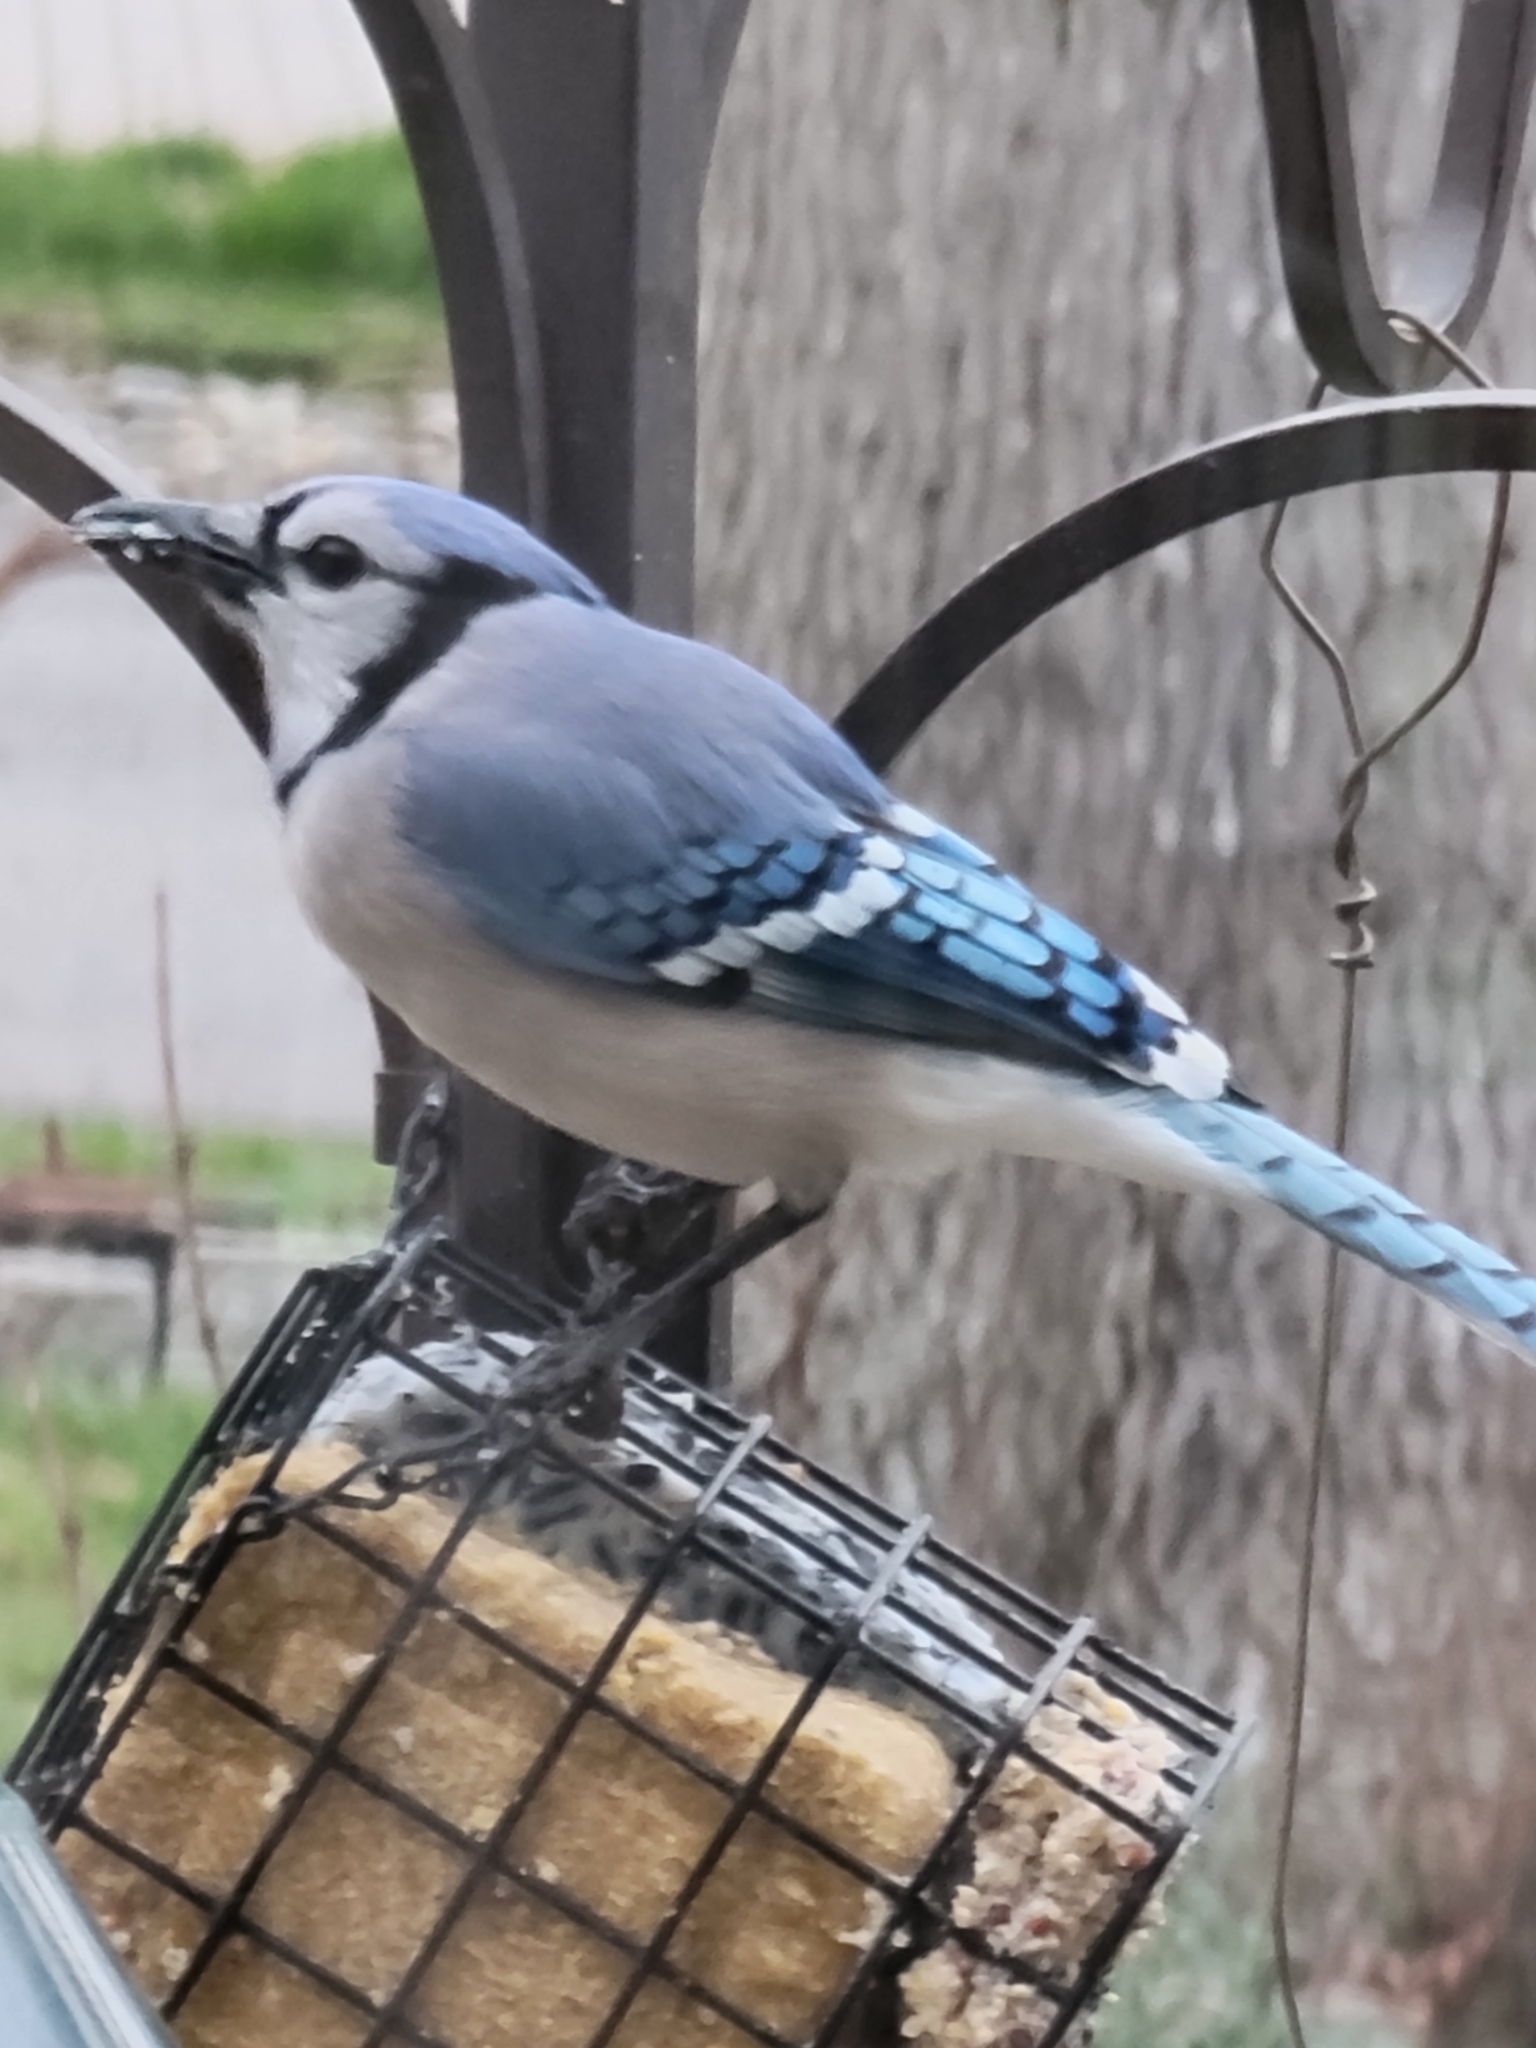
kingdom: Animalia
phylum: Chordata
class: Aves
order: Passeriformes
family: Corvidae
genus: Cyanocitta
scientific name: Cyanocitta cristata
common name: Blue jay
